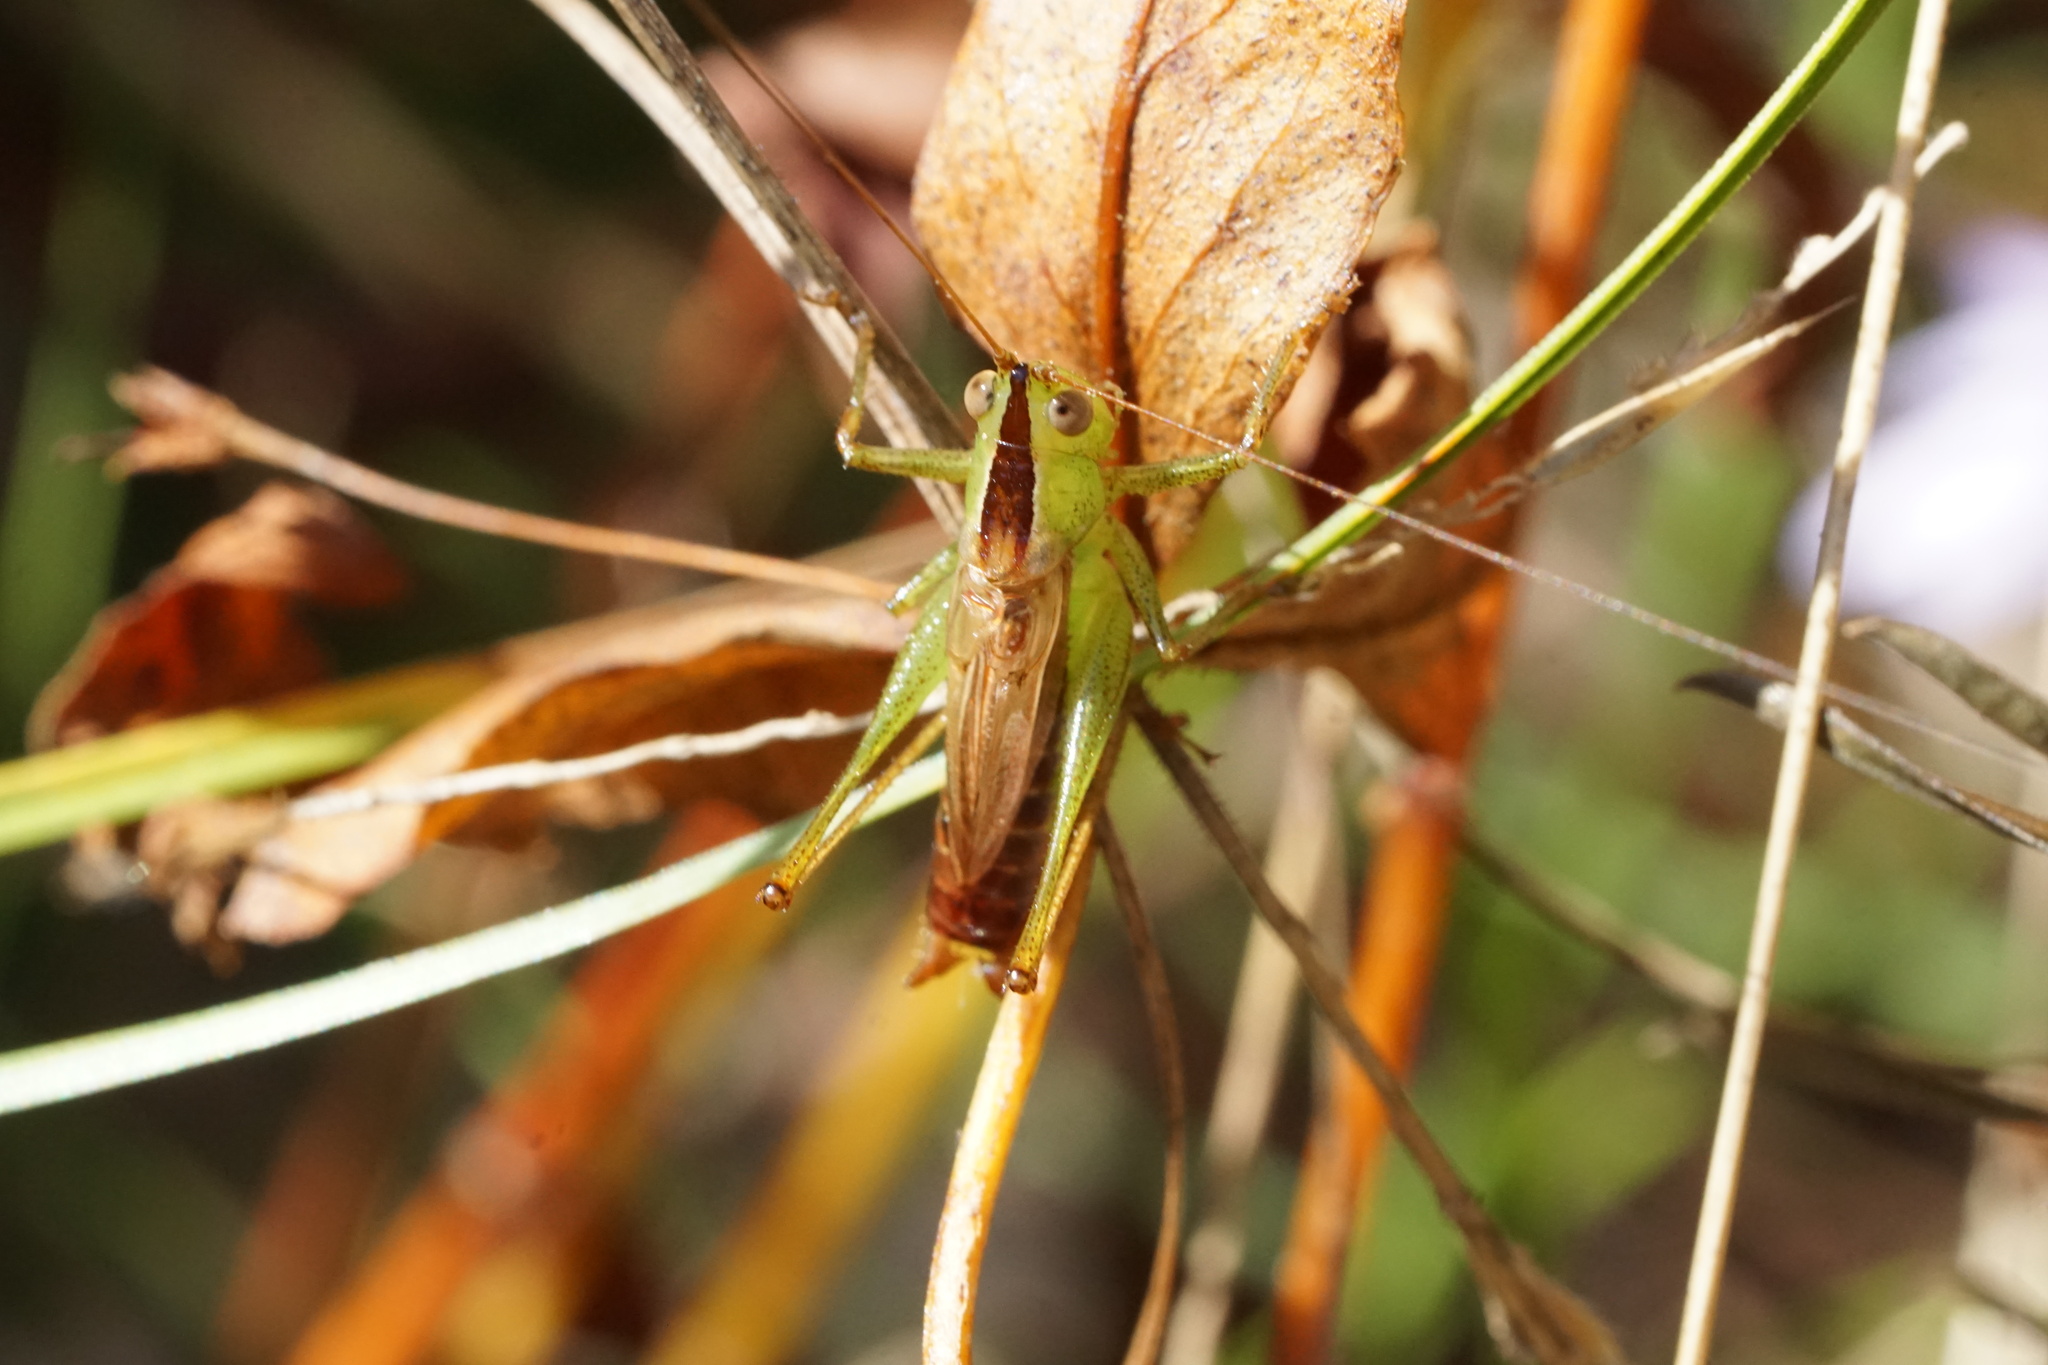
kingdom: Animalia
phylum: Arthropoda
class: Insecta
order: Orthoptera
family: Tettigoniidae
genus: Conocephalus
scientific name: Conocephalus brevipennis
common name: Short-winged meadow katydid
